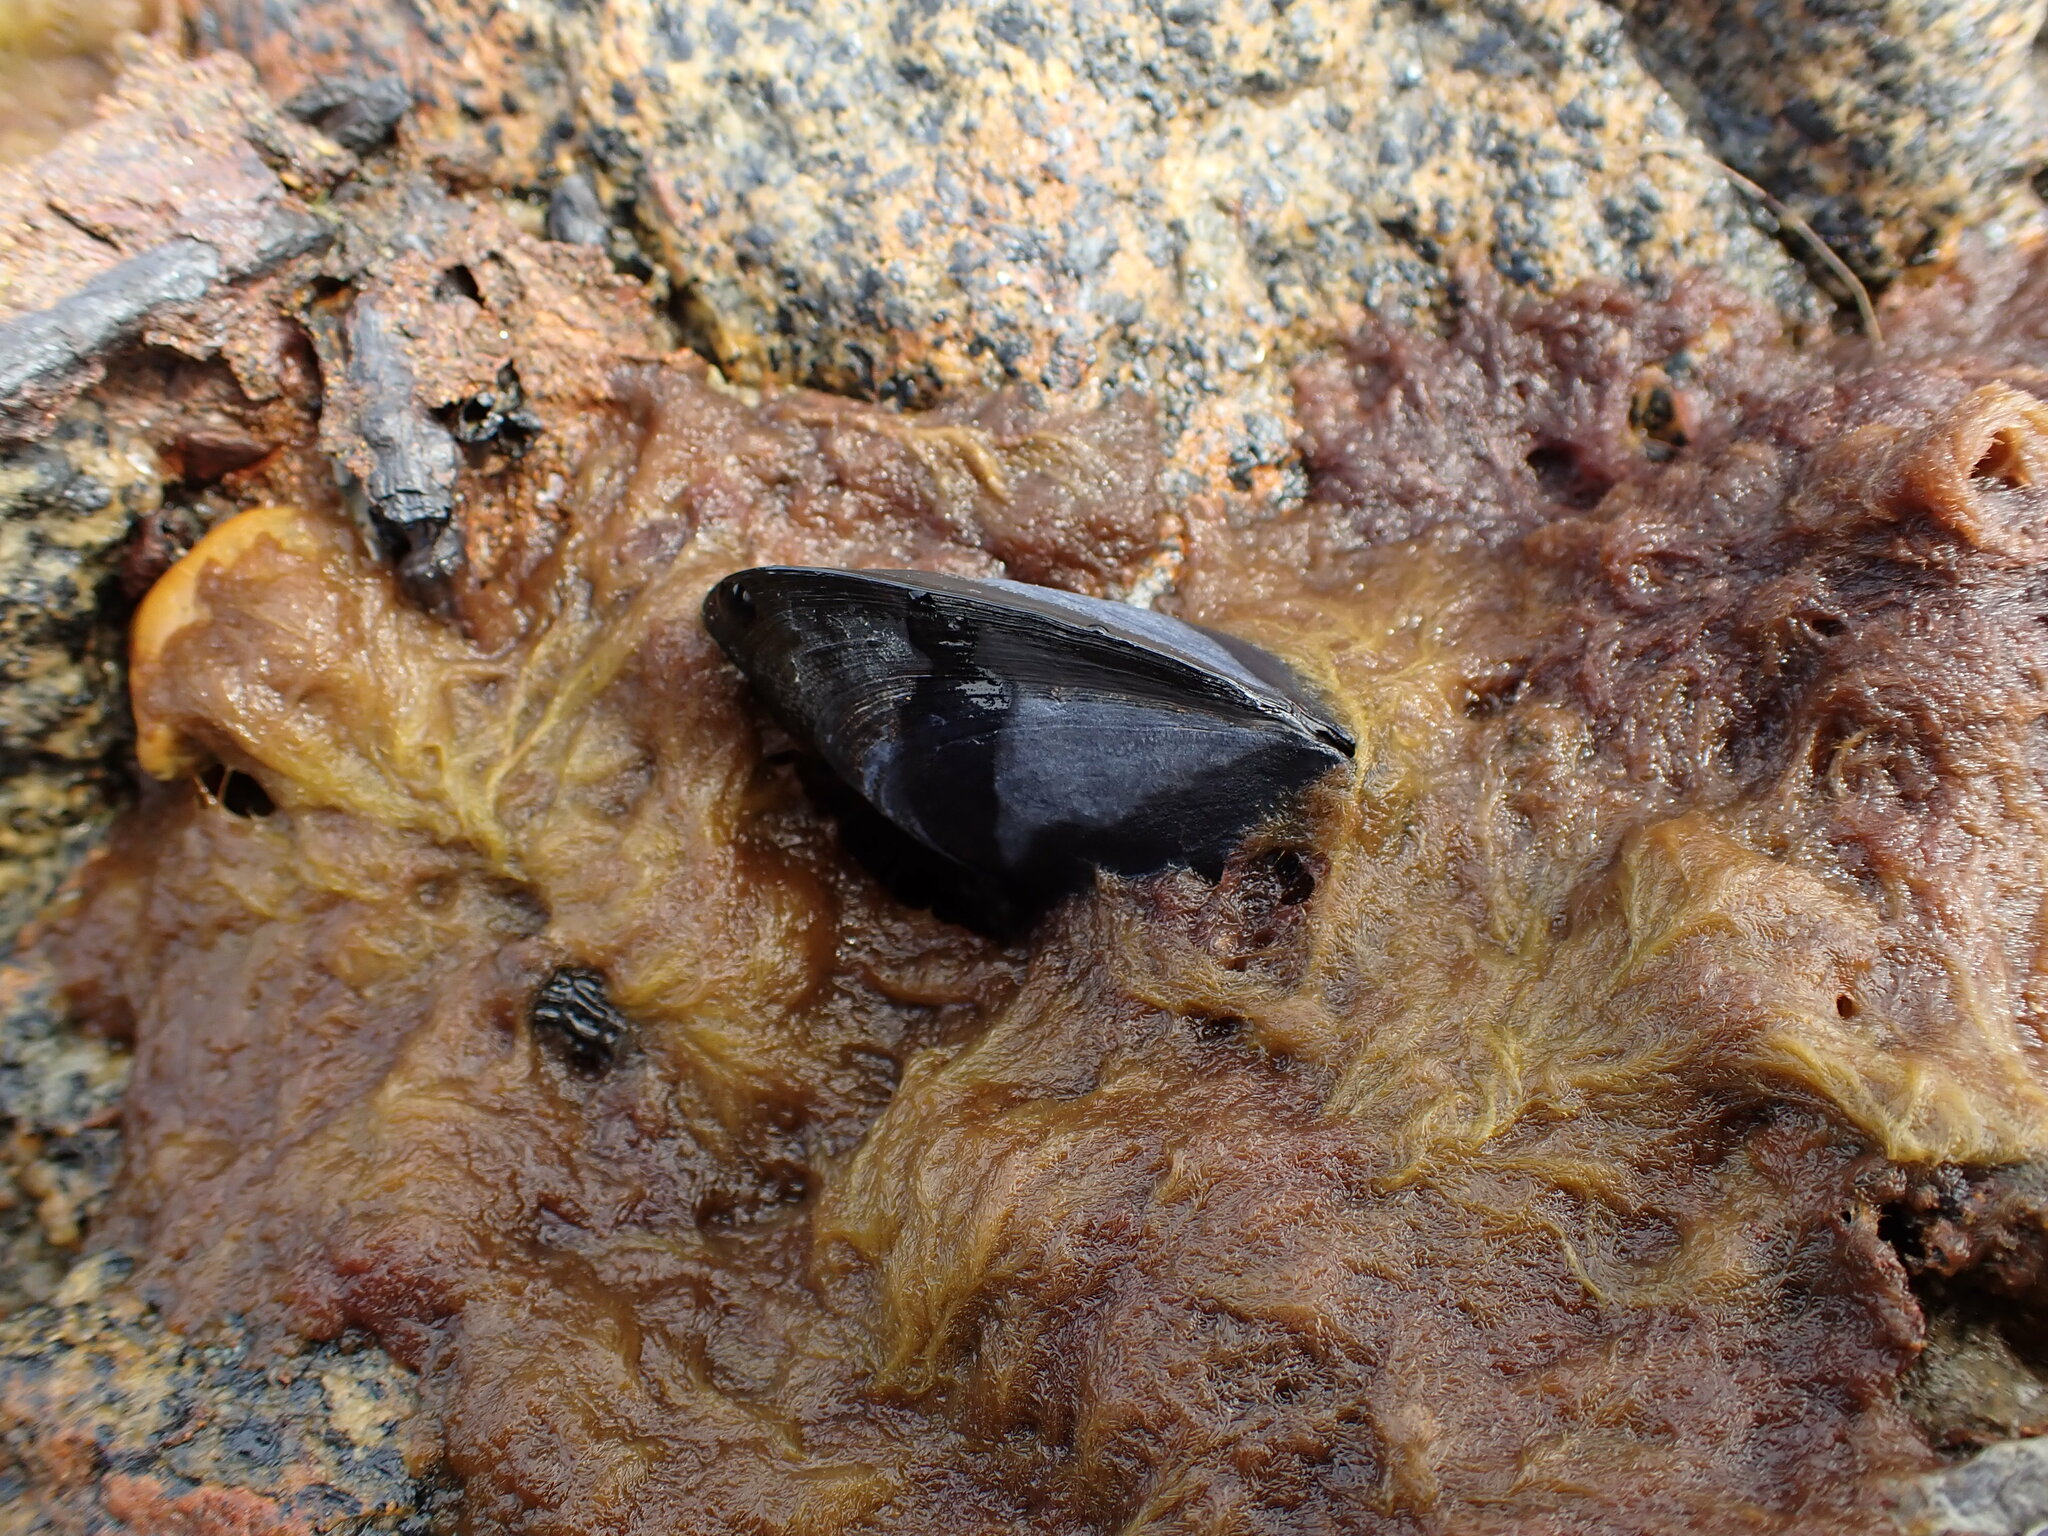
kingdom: Animalia
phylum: Mollusca
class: Bivalvia
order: Mytilida
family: Mytilidae
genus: Mytilus
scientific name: Mytilus planulatus
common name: Australian mussel
